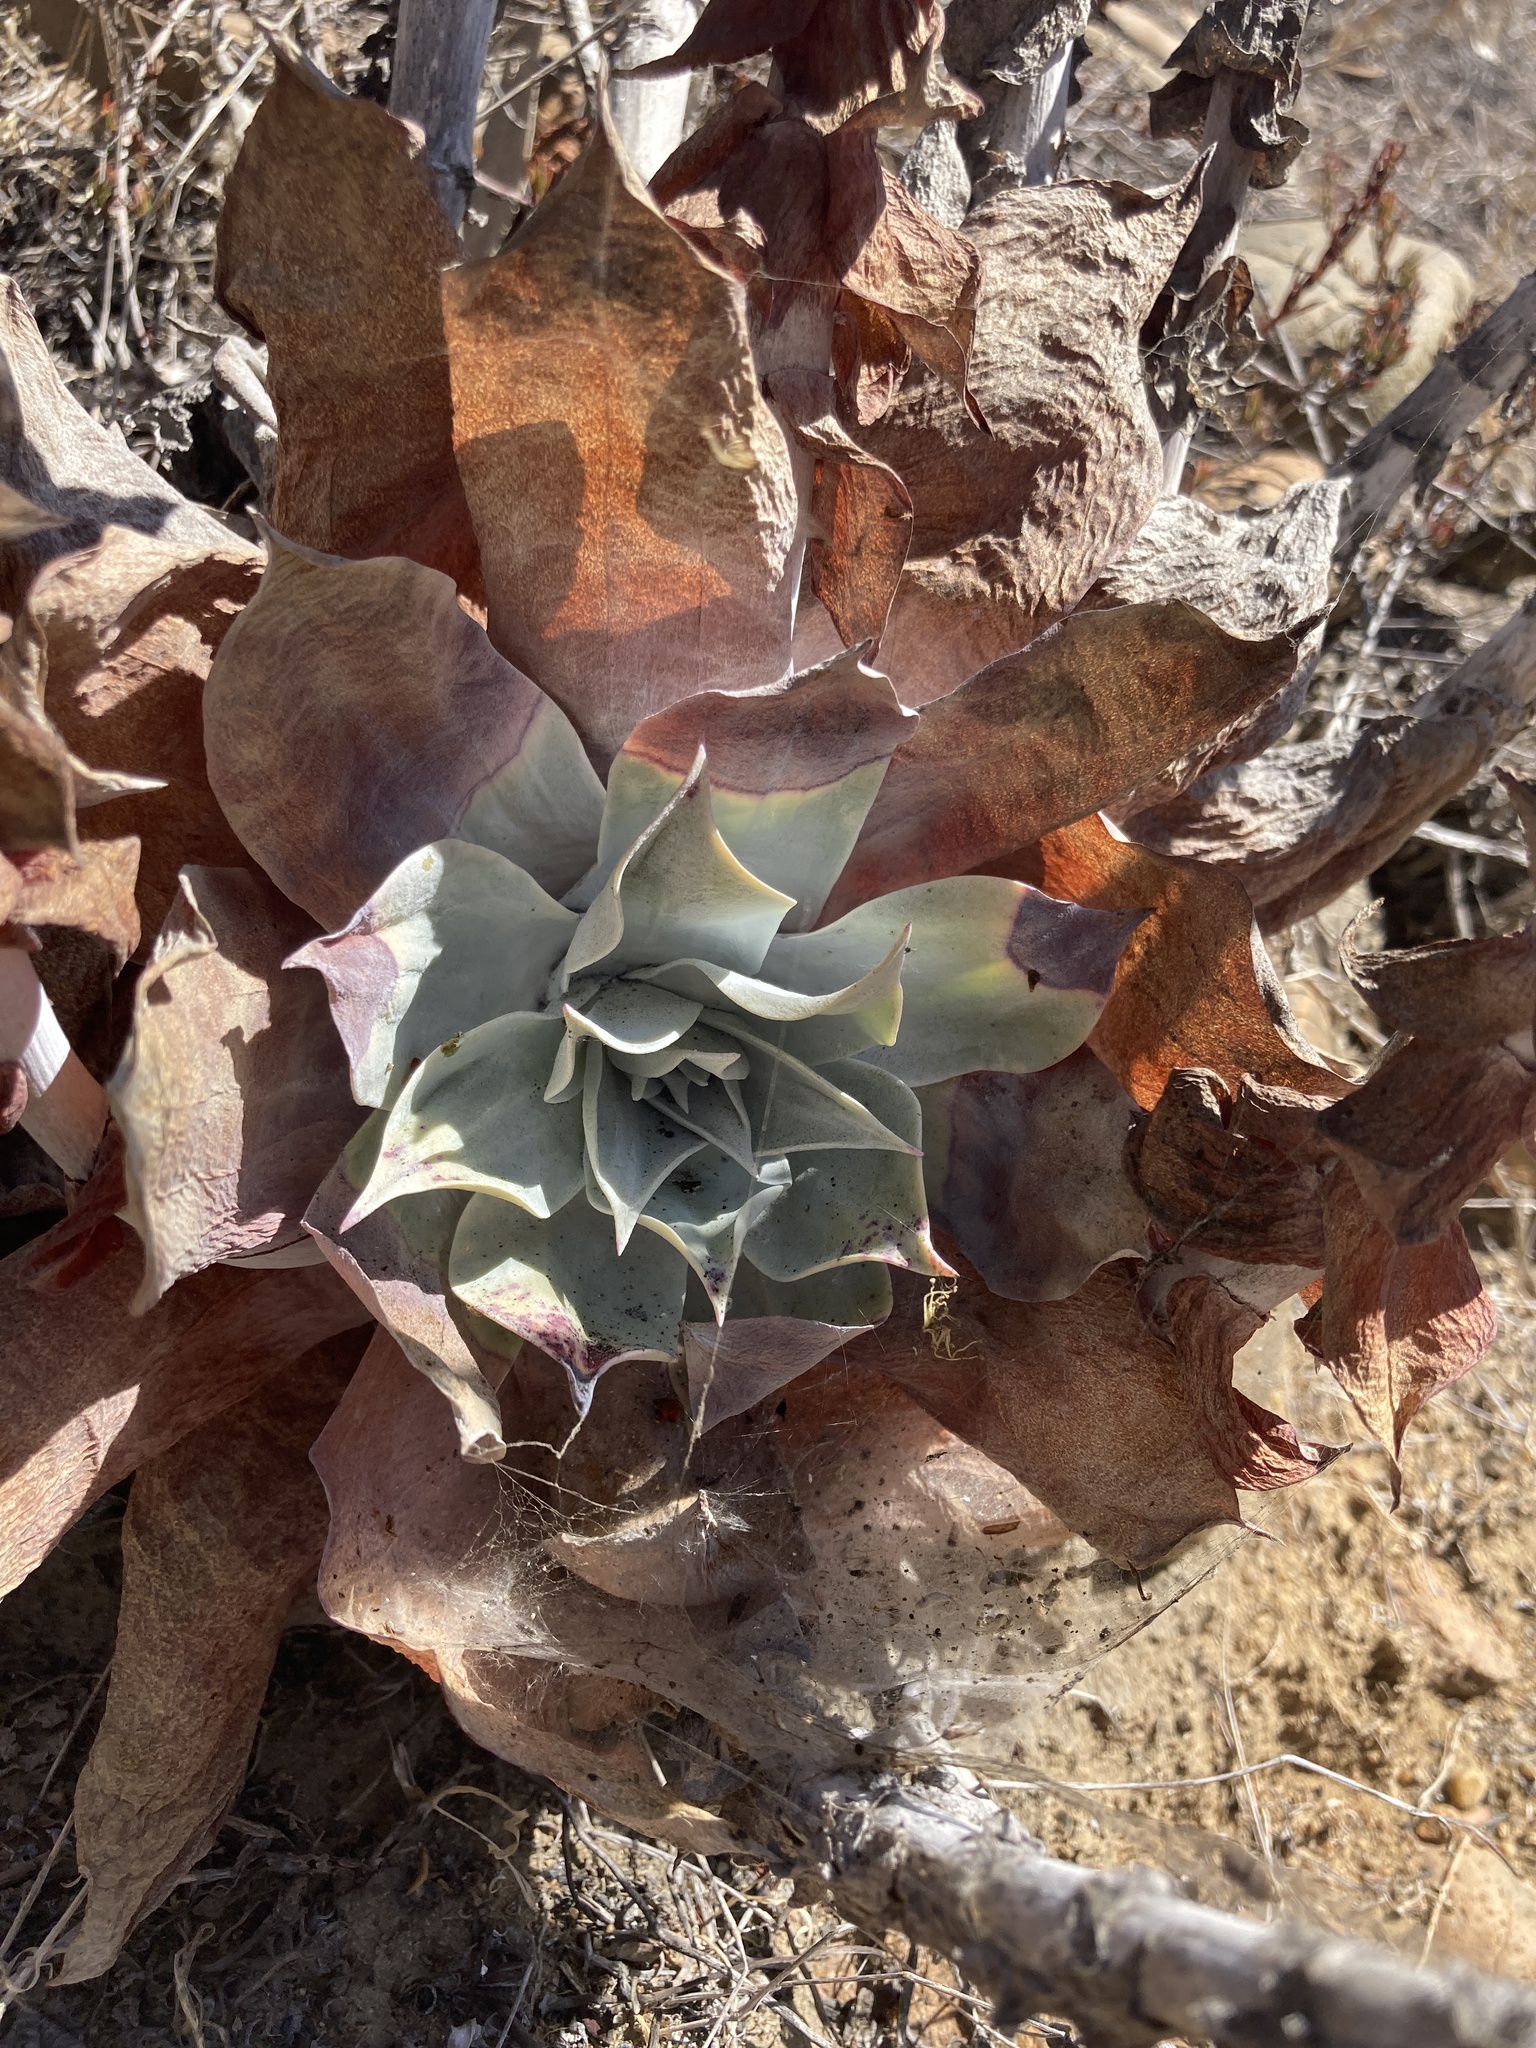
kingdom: Plantae
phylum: Tracheophyta
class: Magnoliopsida
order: Saxifragales
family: Crassulaceae
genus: Dudleya
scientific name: Dudleya pulverulenta
